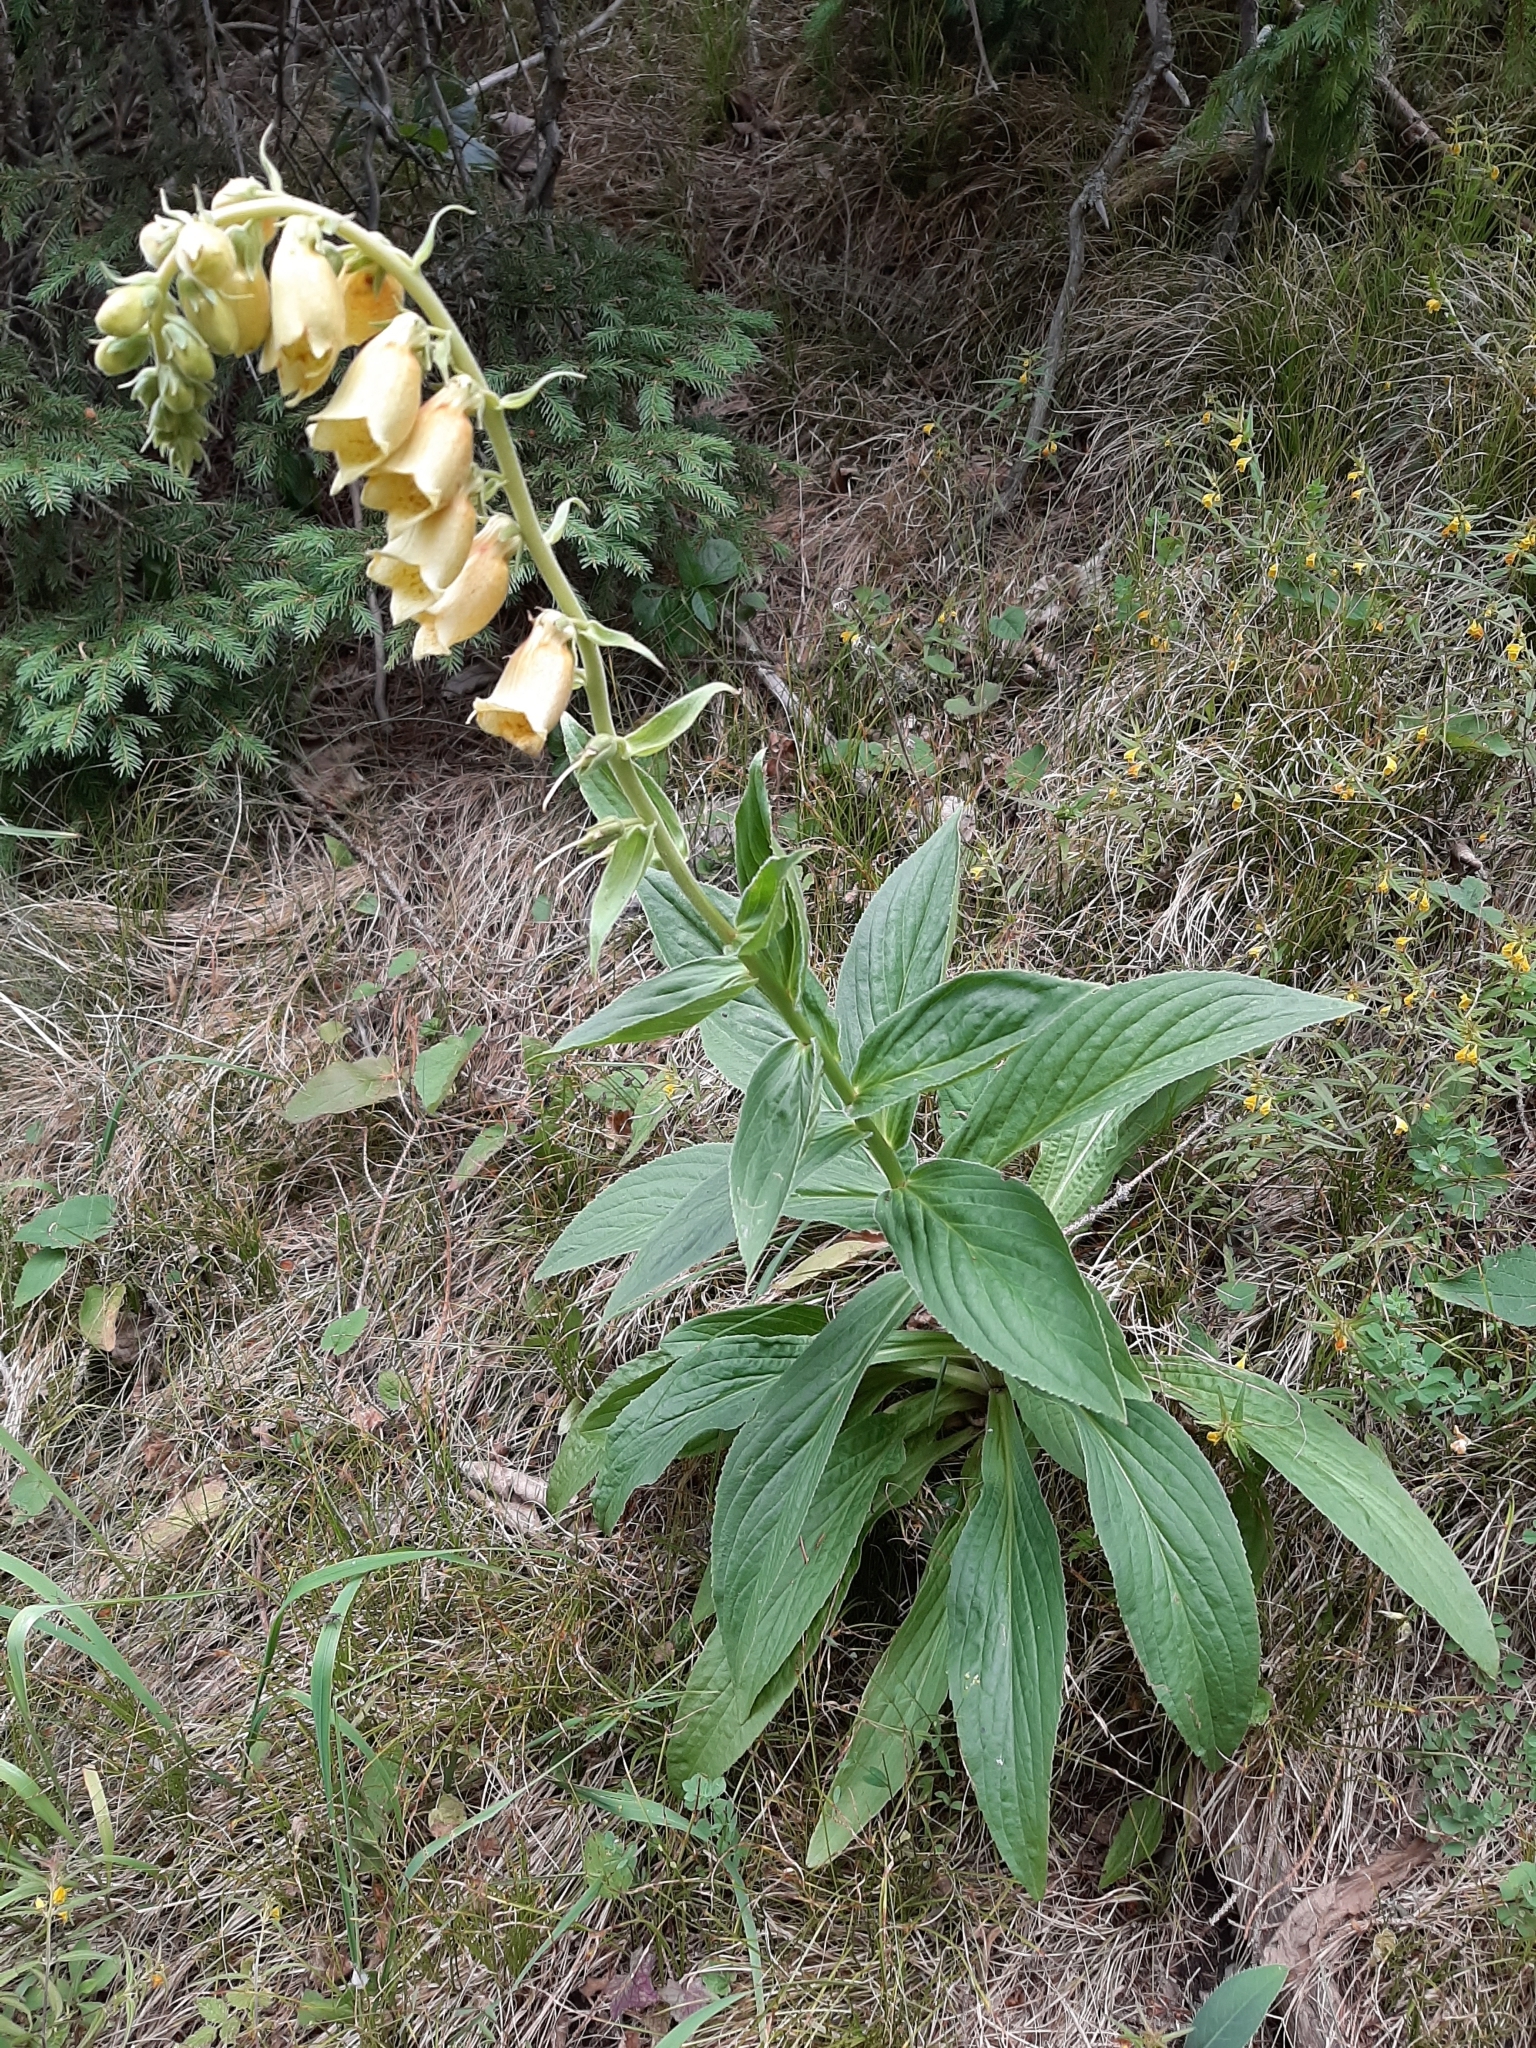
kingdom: Plantae
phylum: Tracheophyta
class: Magnoliopsida
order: Lamiales
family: Plantaginaceae
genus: Digitalis
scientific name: Digitalis grandiflora
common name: Yellow foxglove
